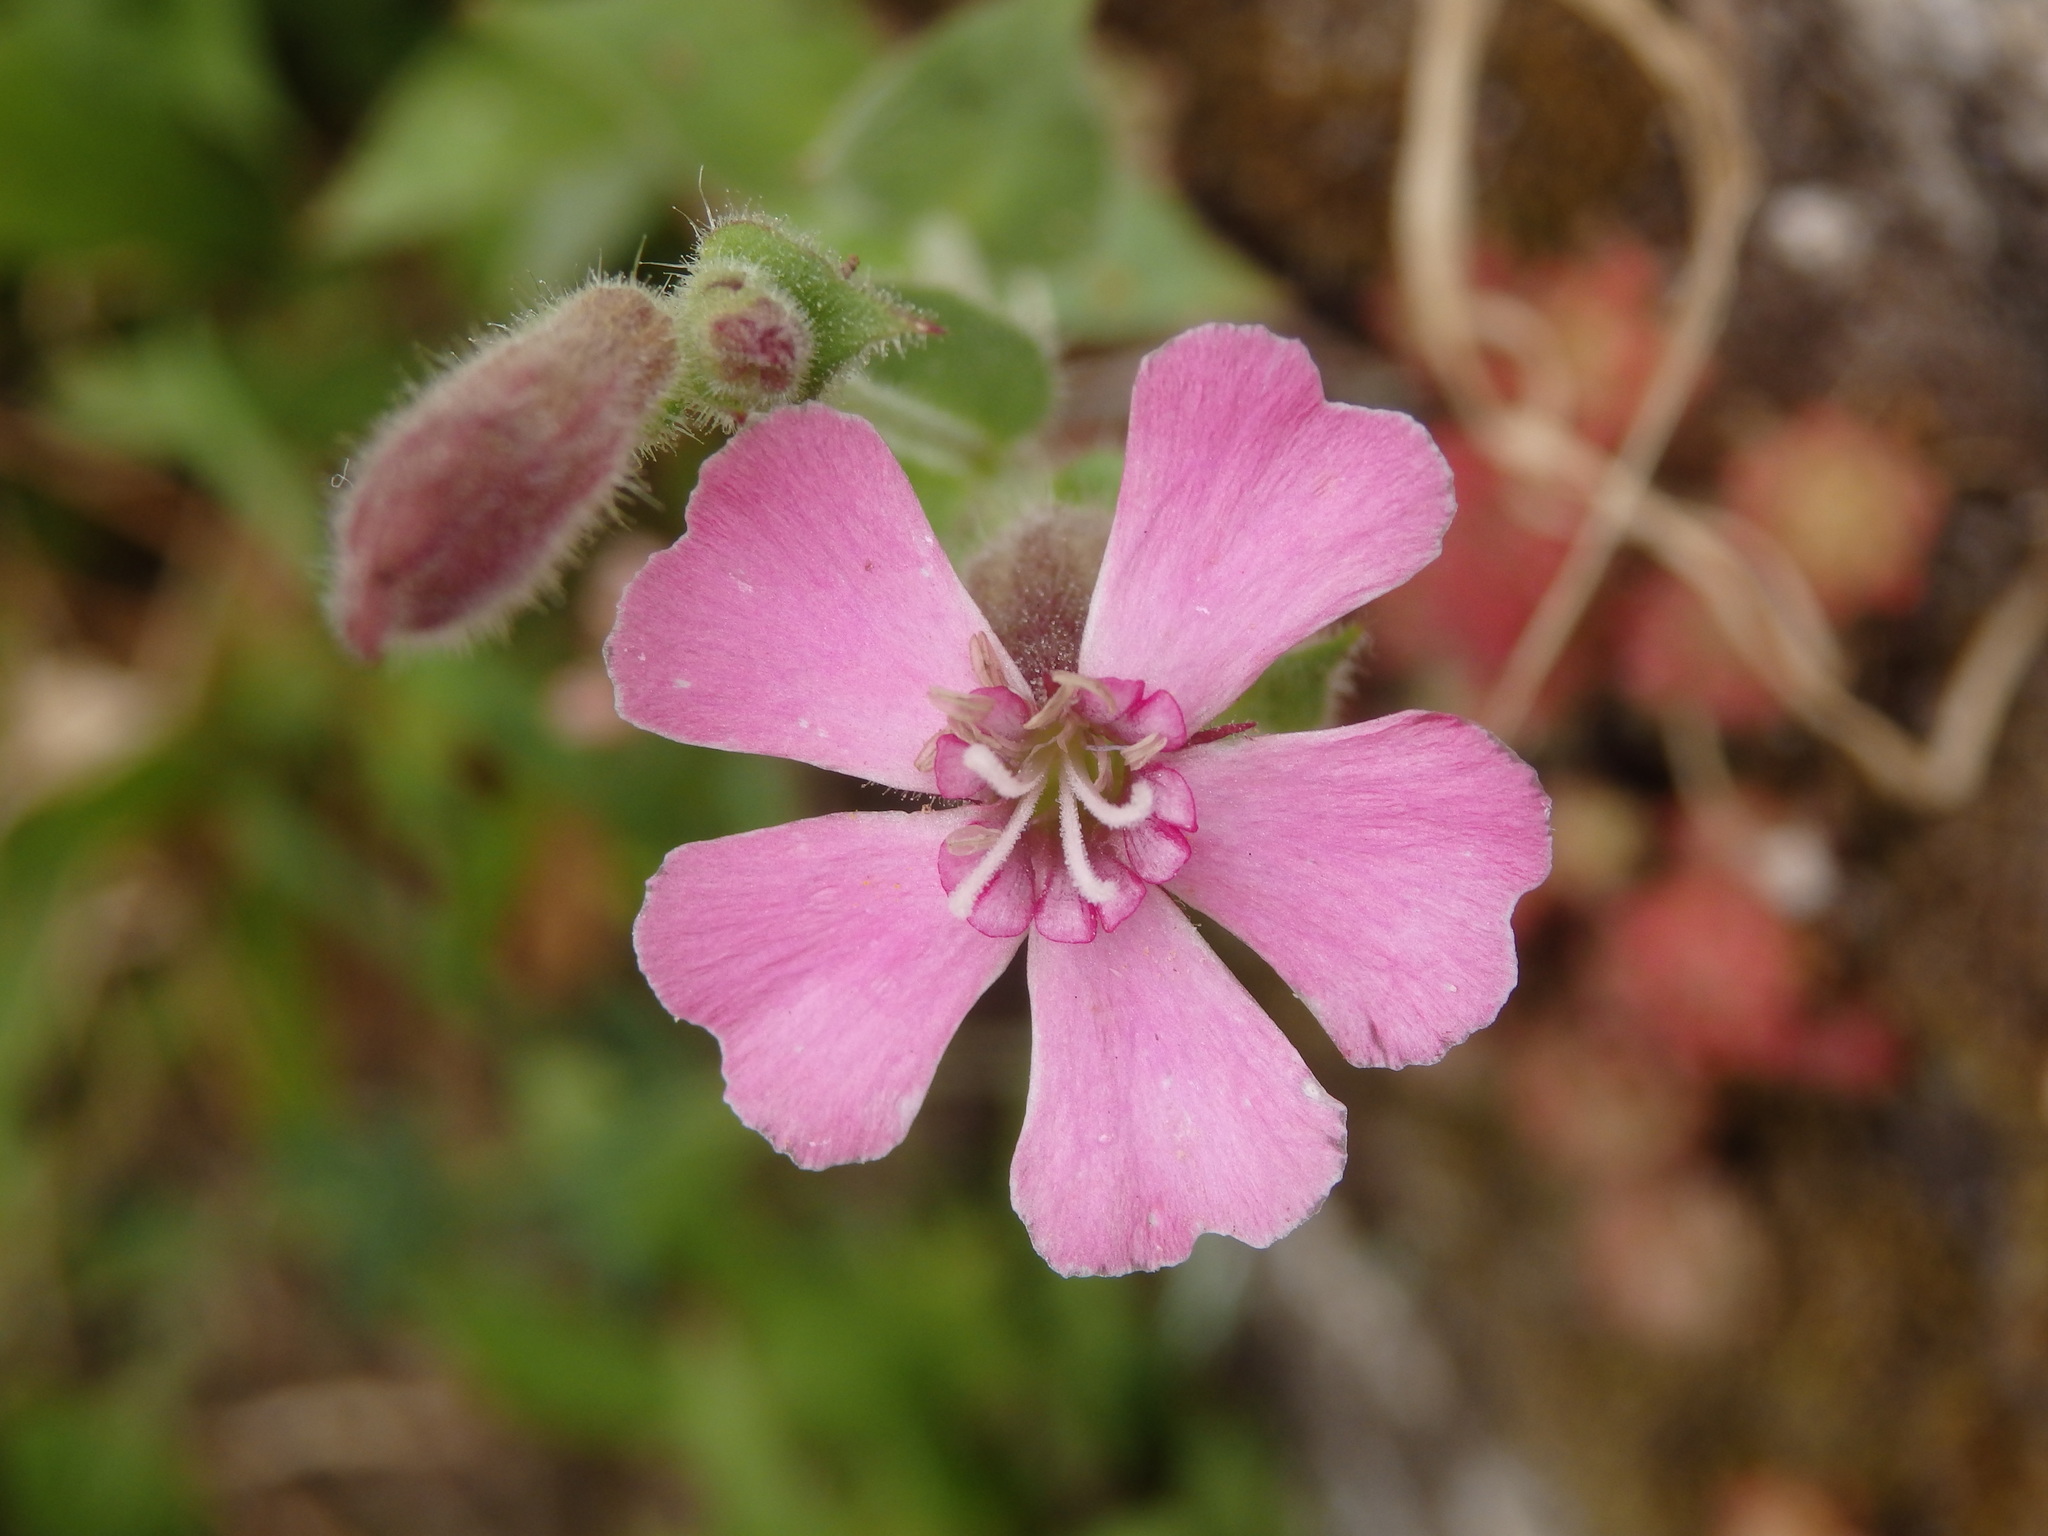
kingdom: Plantae
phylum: Tracheophyta
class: Magnoliopsida
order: Caryophyllales
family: Caryophyllaceae
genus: Silene
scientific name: Silene acutifolia
